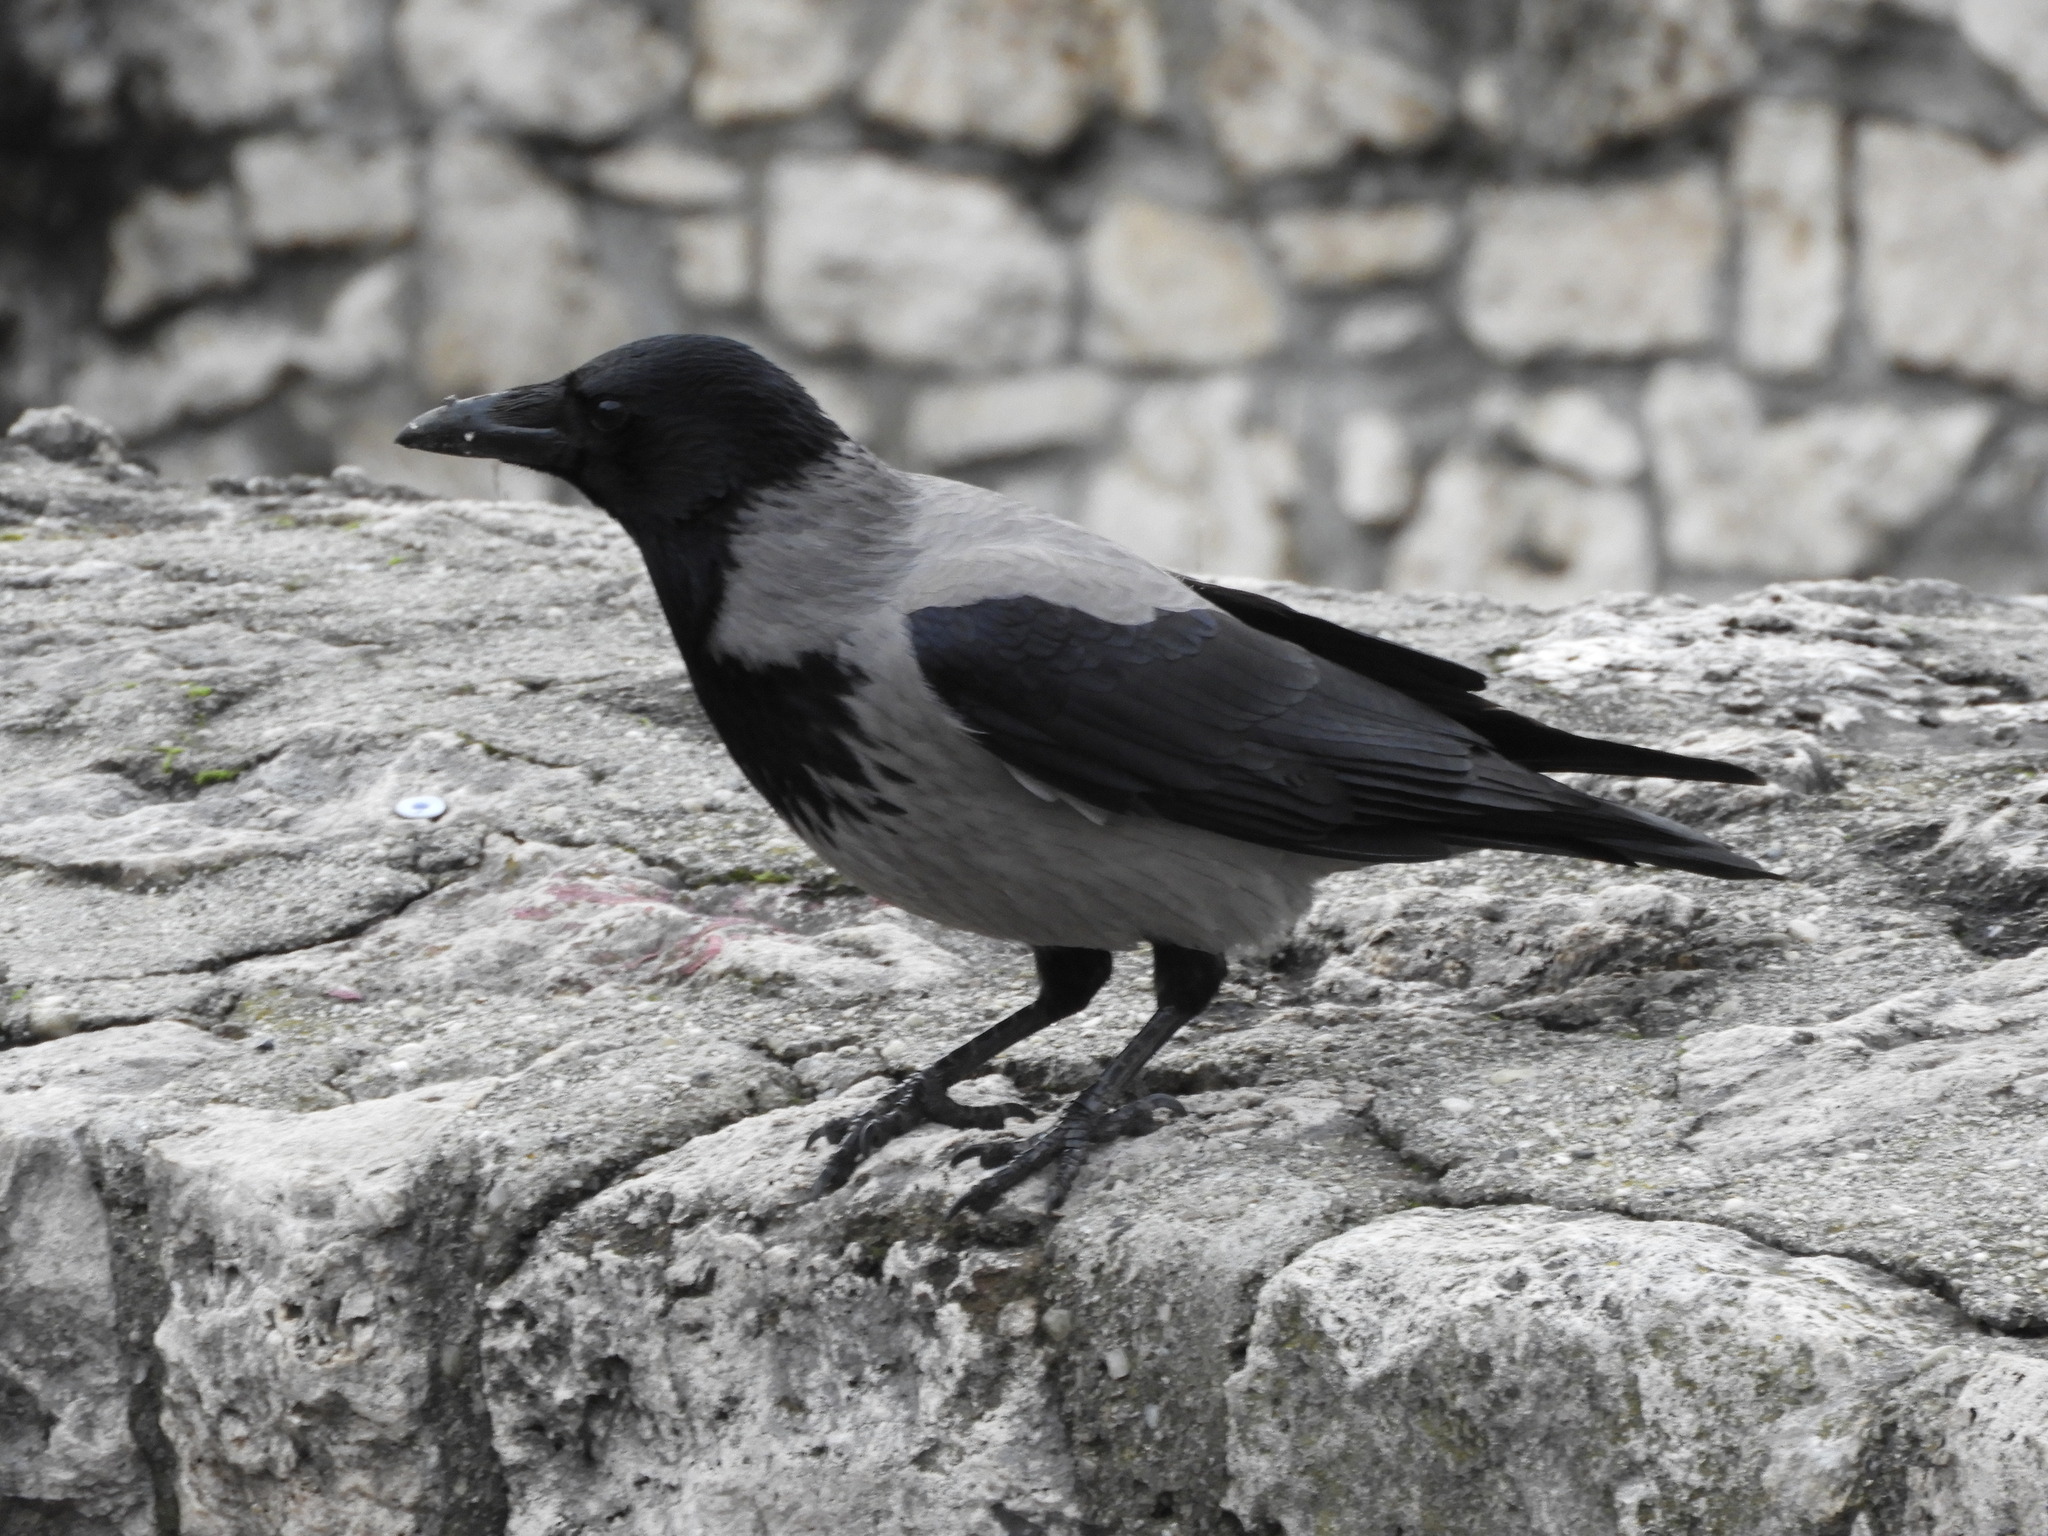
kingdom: Animalia
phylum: Chordata
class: Aves
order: Passeriformes
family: Corvidae
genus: Corvus
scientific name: Corvus cornix
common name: Hooded crow
